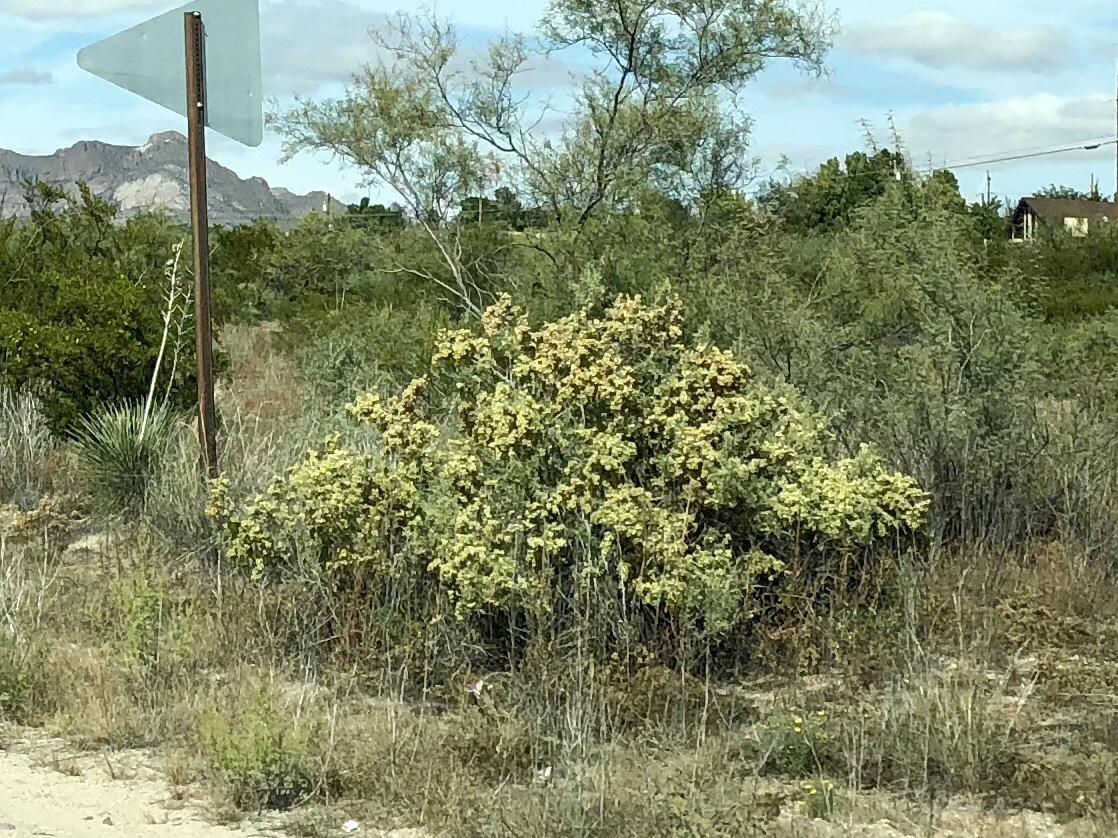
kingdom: Plantae
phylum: Tracheophyta
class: Magnoliopsida
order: Caryophyllales
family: Amaranthaceae
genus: Atriplex
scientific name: Atriplex canescens
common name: Four-wing saltbush
